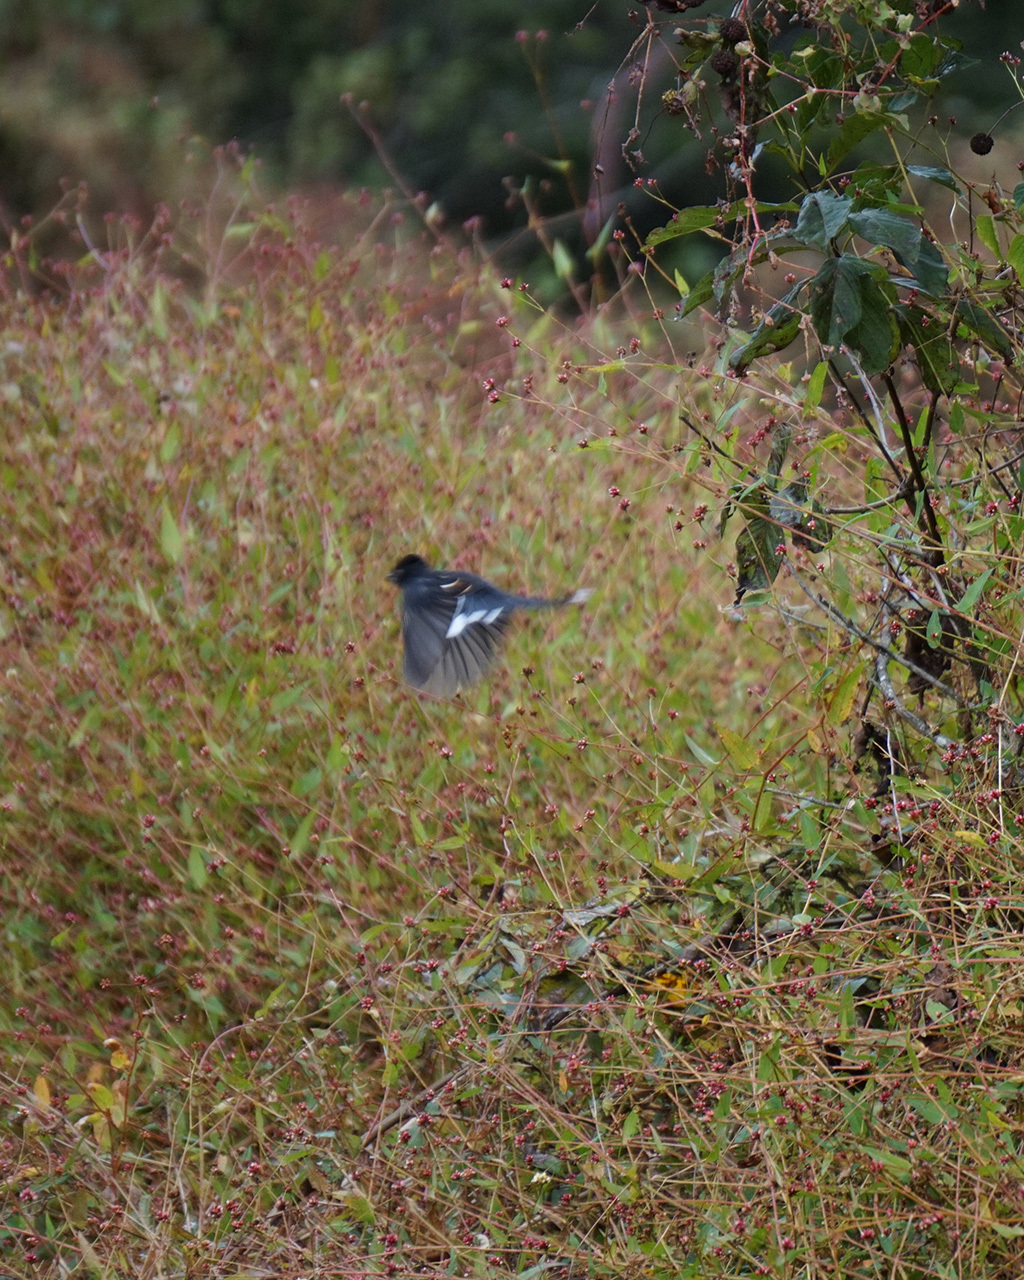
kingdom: Animalia
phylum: Chordata
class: Aves
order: Passeriformes
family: Passerellidae
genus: Pipilo
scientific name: Pipilo erythrophthalmus
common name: Eastern towhee
